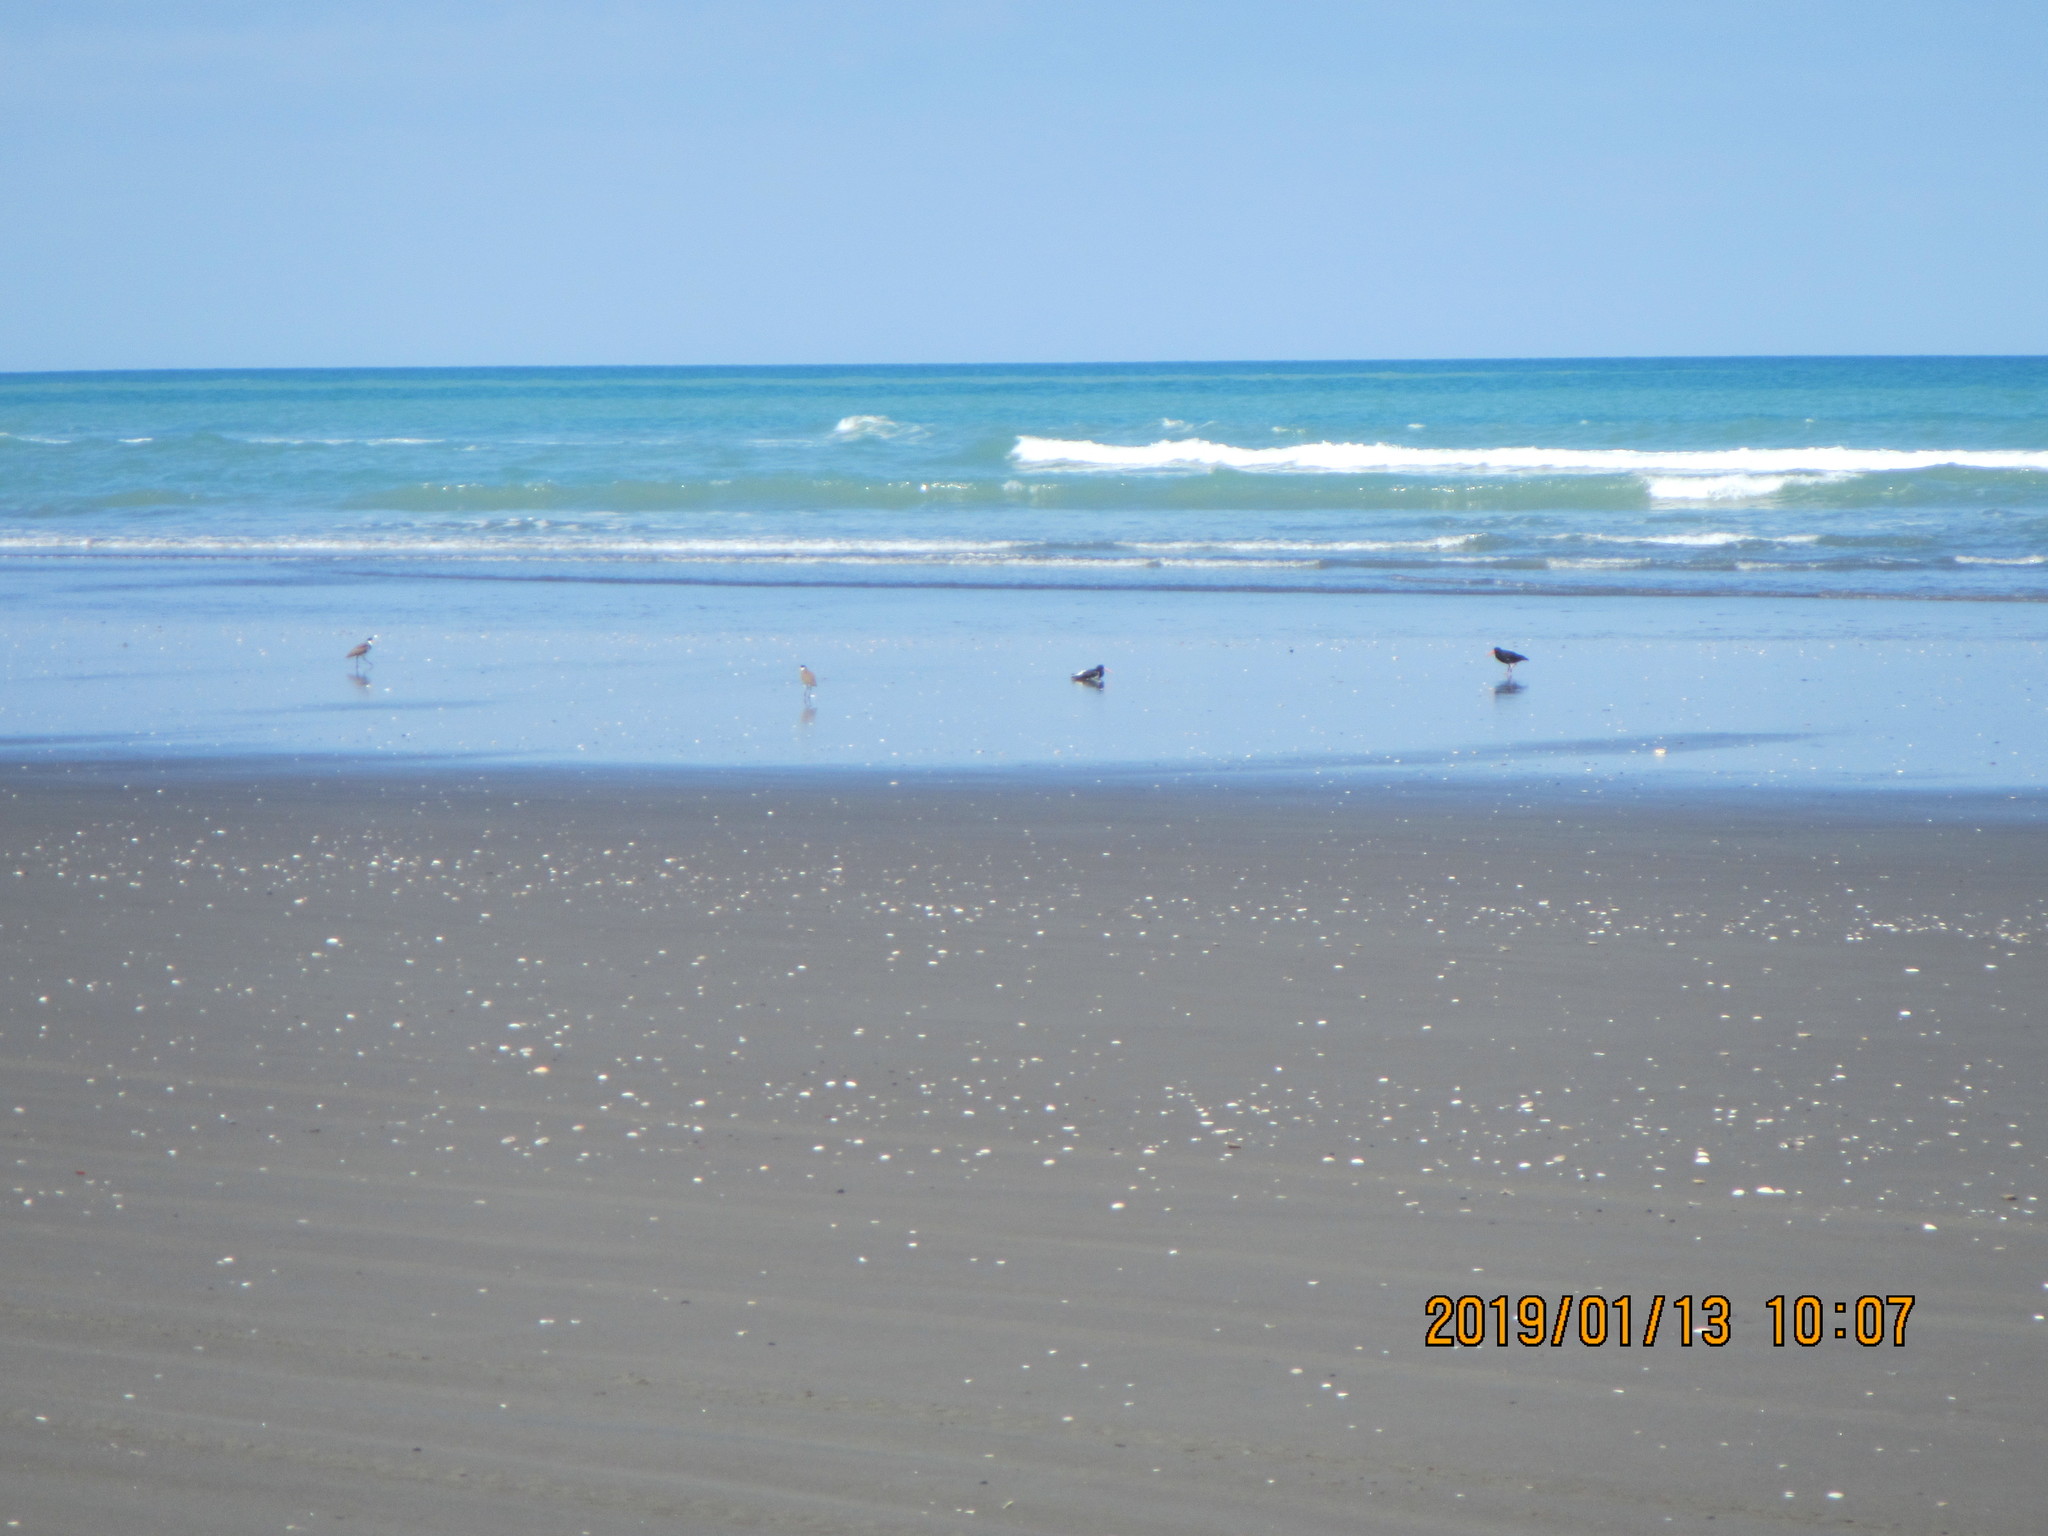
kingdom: Animalia
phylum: Chordata
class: Aves
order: Charadriiformes
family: Charadriidae
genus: Vanellus
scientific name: Vanellus miles
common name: Masked lapwing
